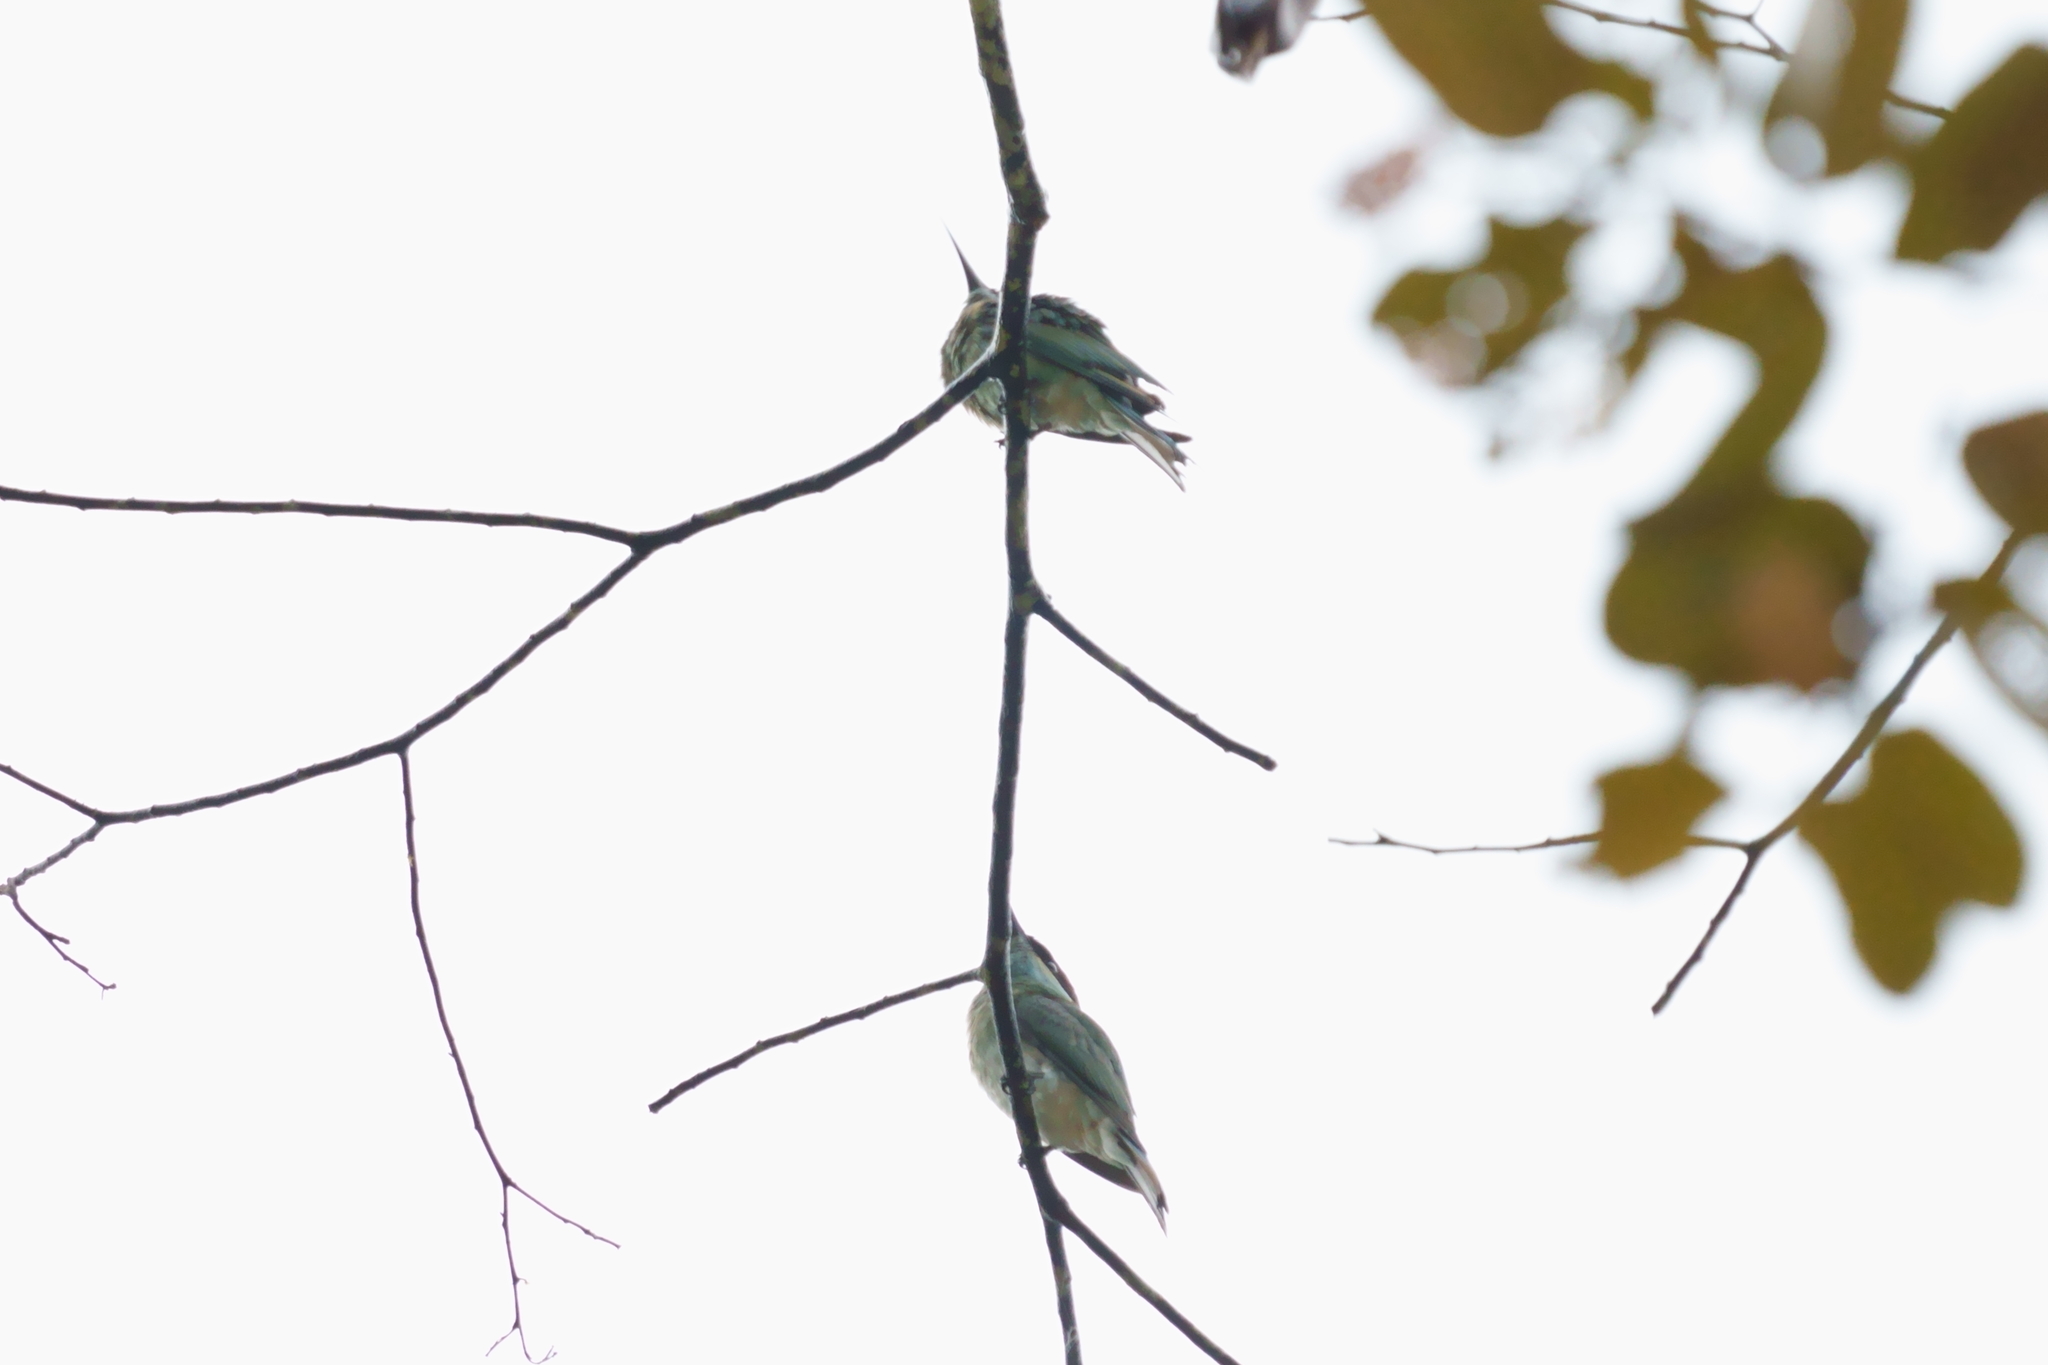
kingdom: Animalia
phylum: Chordata
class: Aves
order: Coraciiformes
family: Meropidae
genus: Merops
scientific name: Merops viridis
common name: Blue-throated bee-eater
